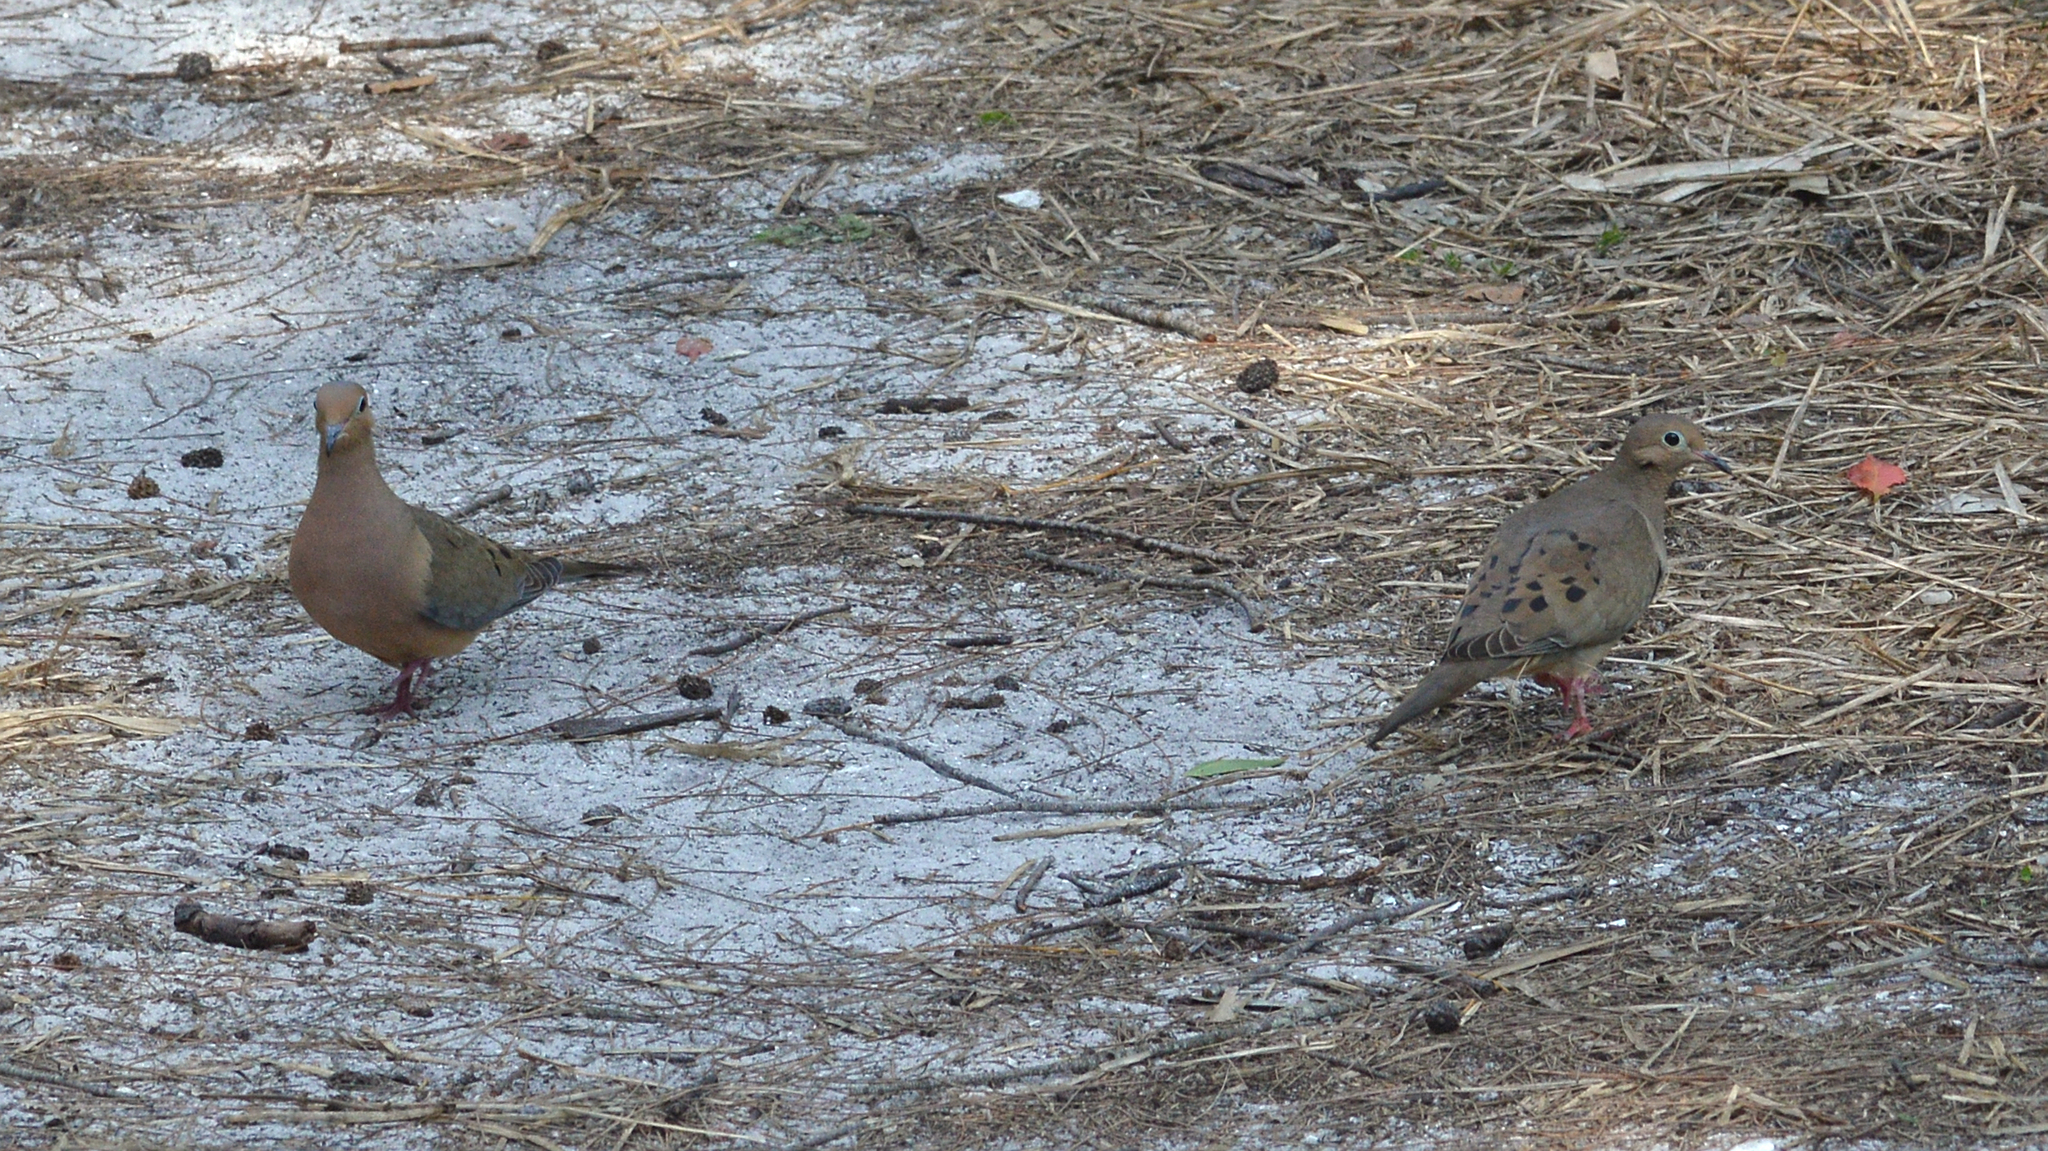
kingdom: Animalia
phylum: Chordata
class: Aves
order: Columbiformes
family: Columbidae
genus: Zenaida
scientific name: Zenaida macroura
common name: Mourning dove
